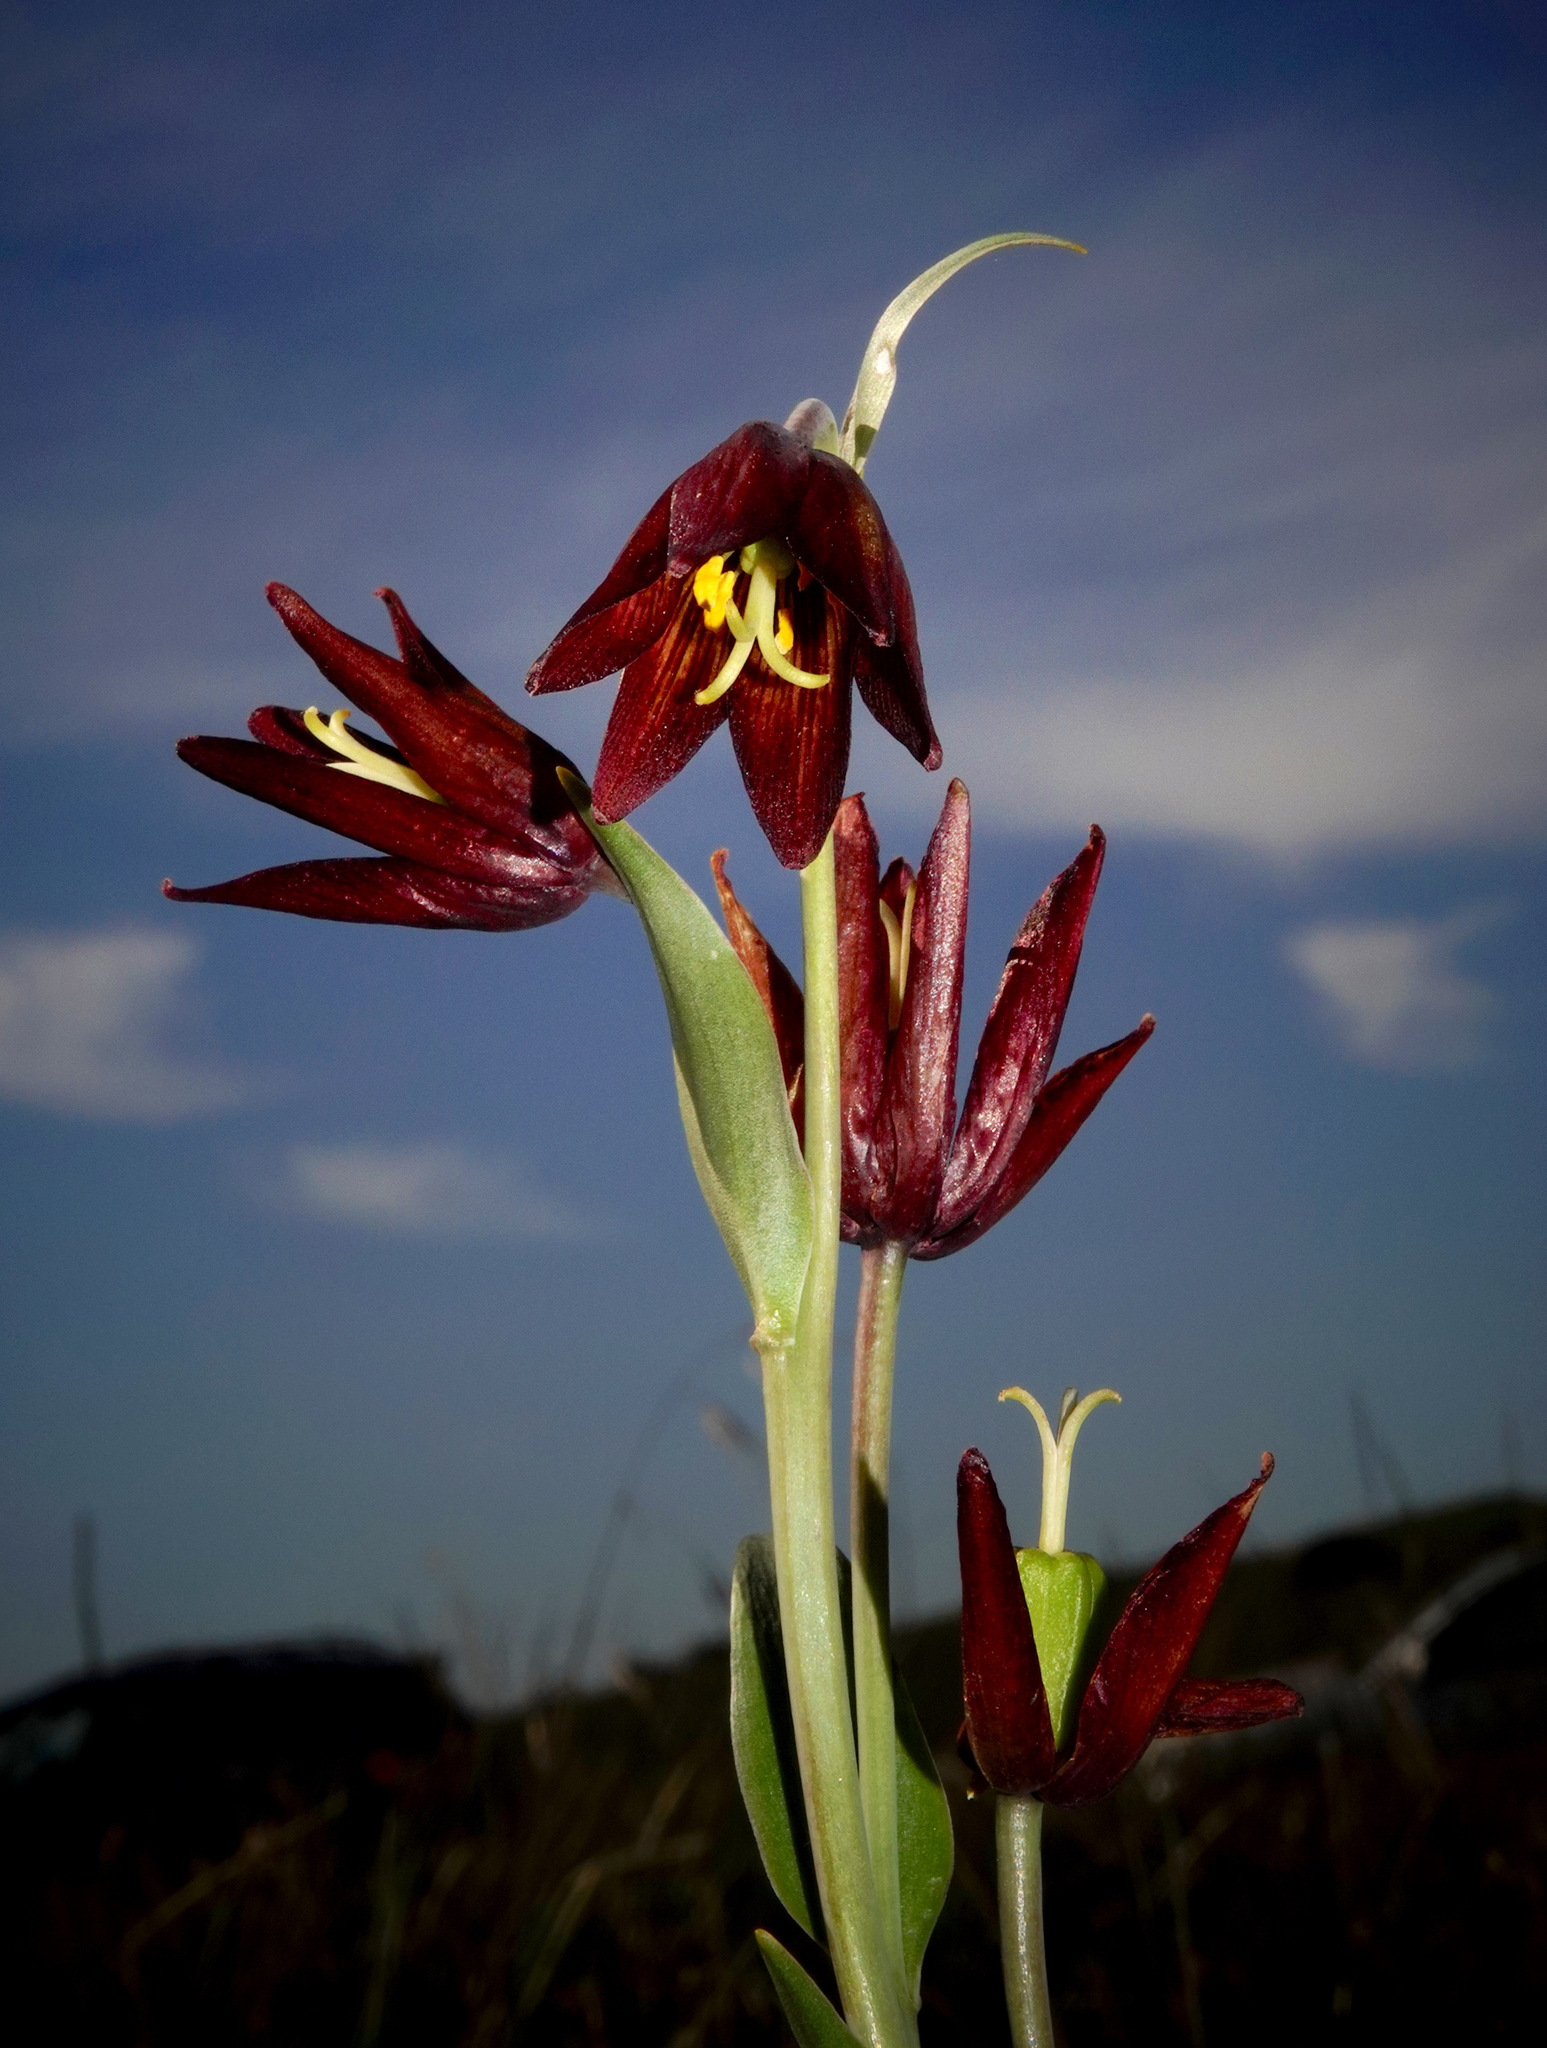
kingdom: Plantae
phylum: Tracheophyta
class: Liliopsida
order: Liliales
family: Liliaceae
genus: Fritillaria
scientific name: Fritillaria biflora
